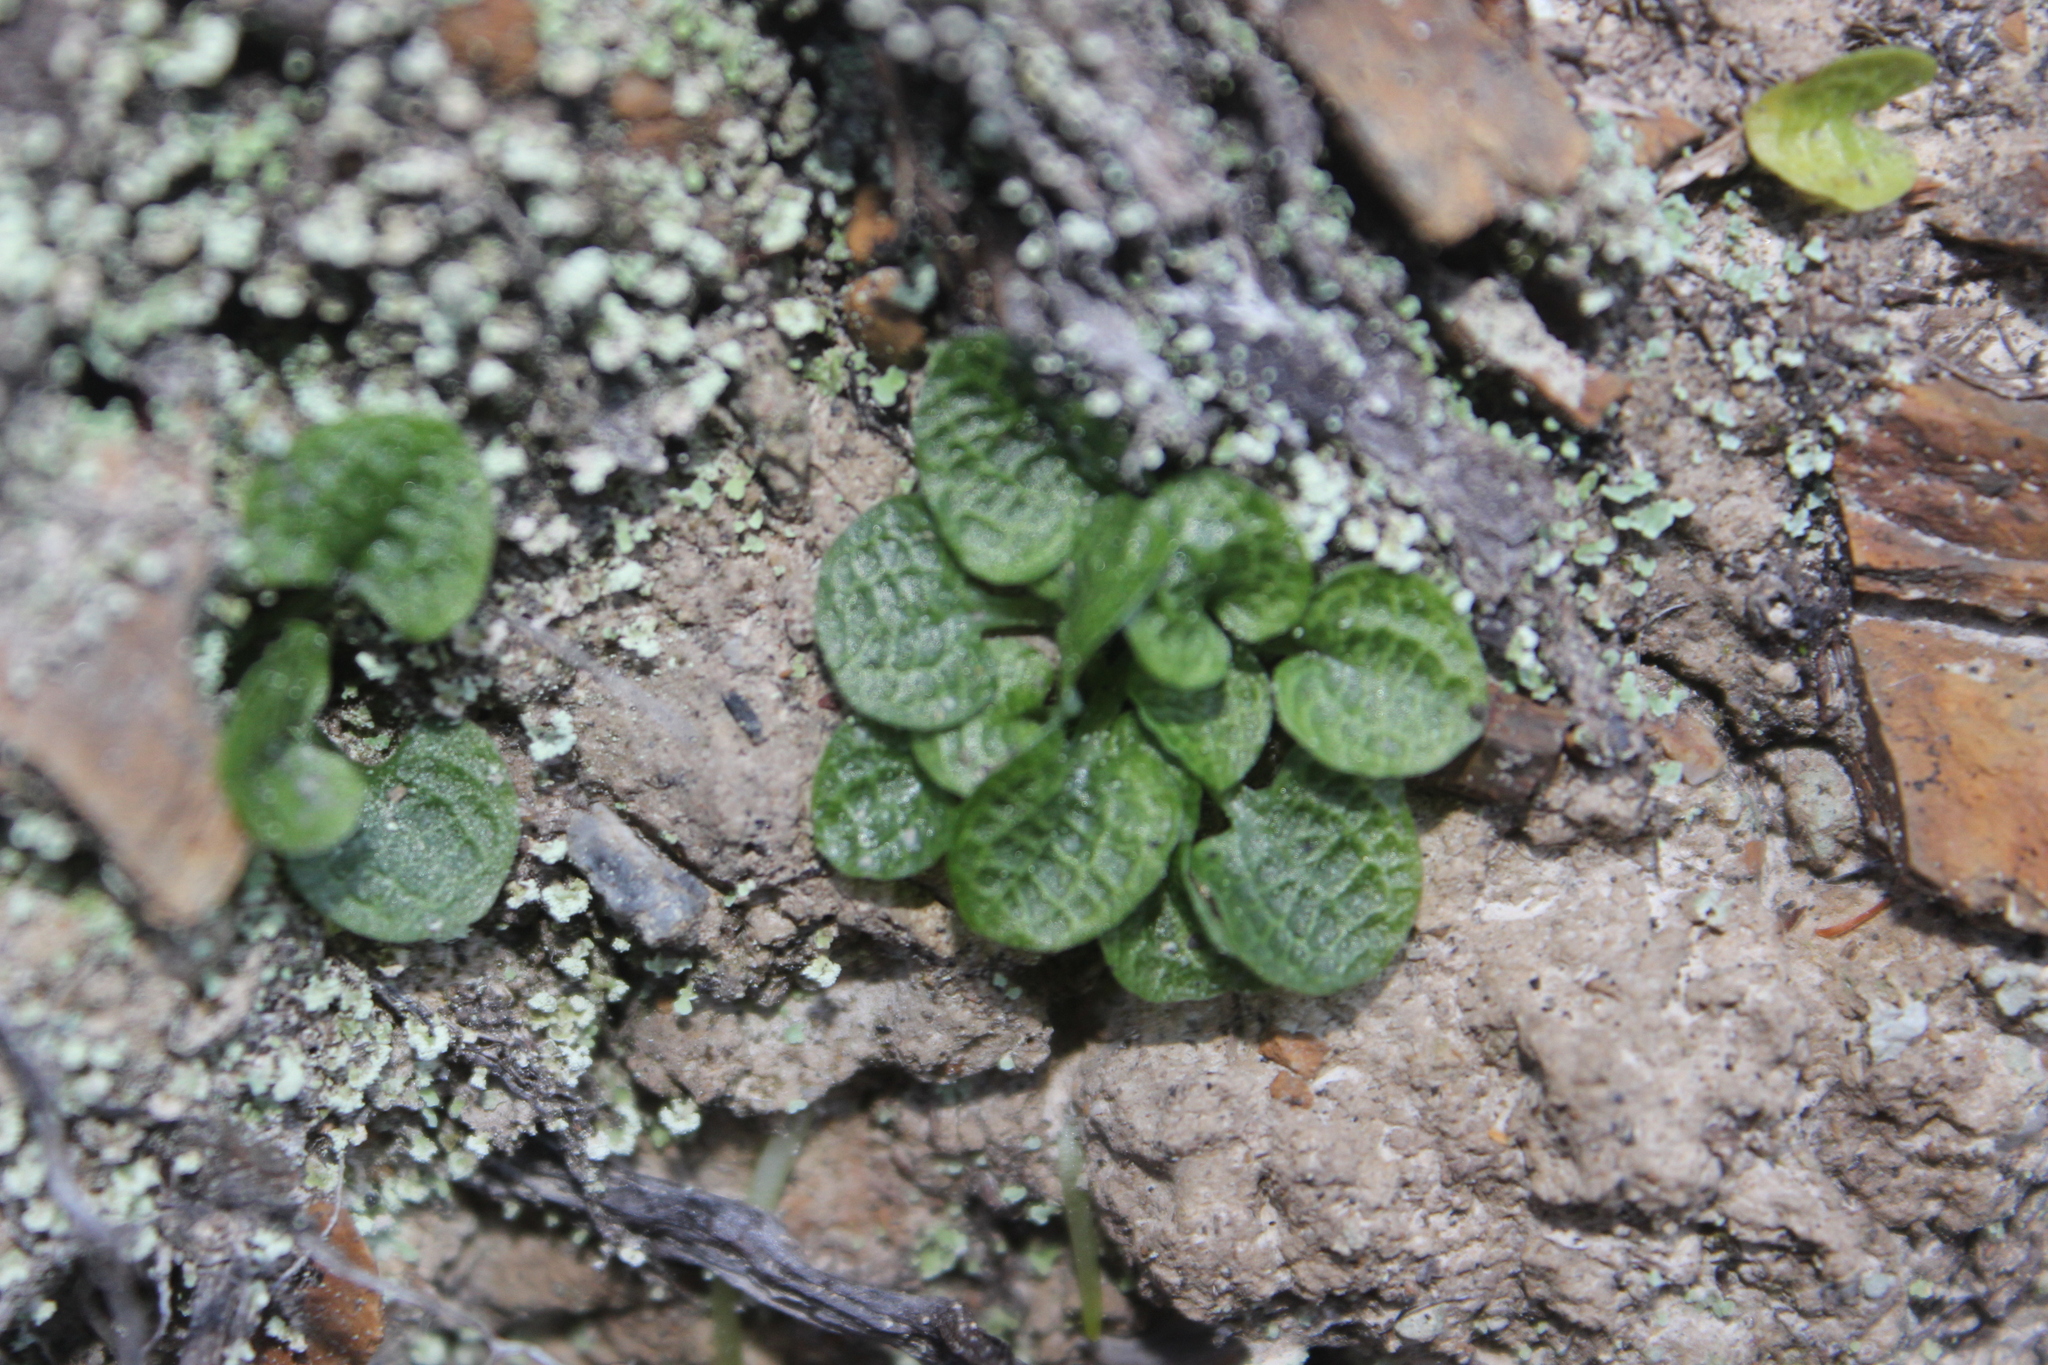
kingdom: Plantae
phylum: Tracheophyta
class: Liliopsida
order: Asparagales
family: Orchidaceae
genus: Pterostylis
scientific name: Pterostylis trullifolia
